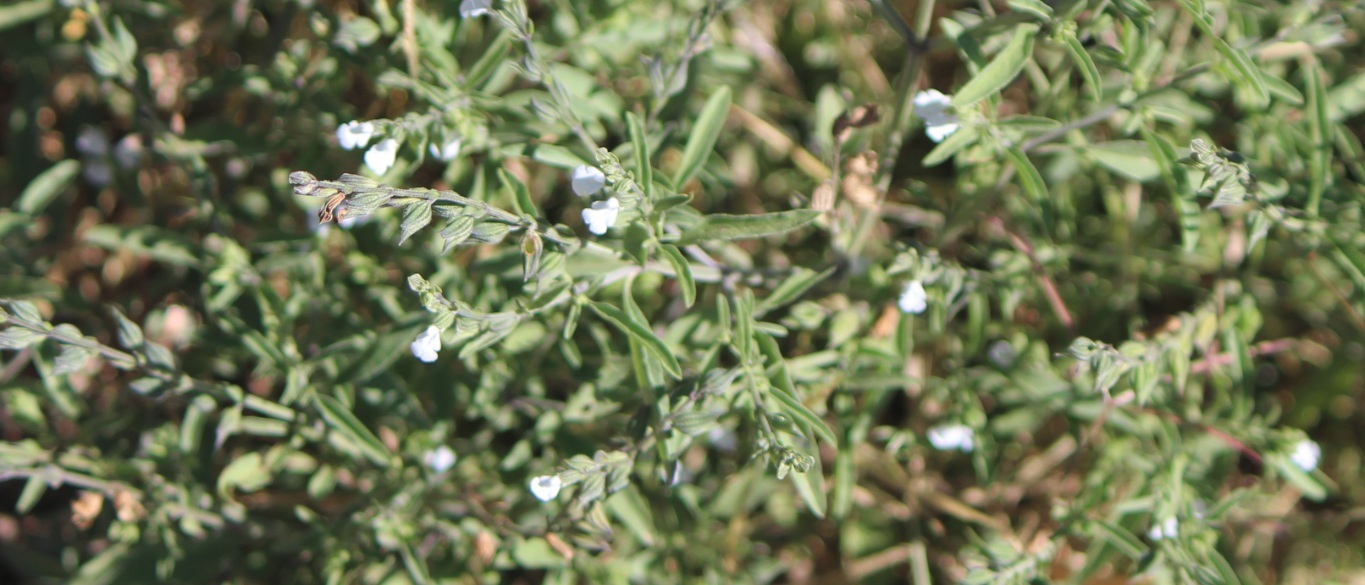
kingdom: Plantae
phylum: Tracheophyta
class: Magnoliopsida
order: Lamiales
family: Lamiaceae
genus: Salvia
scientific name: Salvia reflexa
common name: Mintweed
